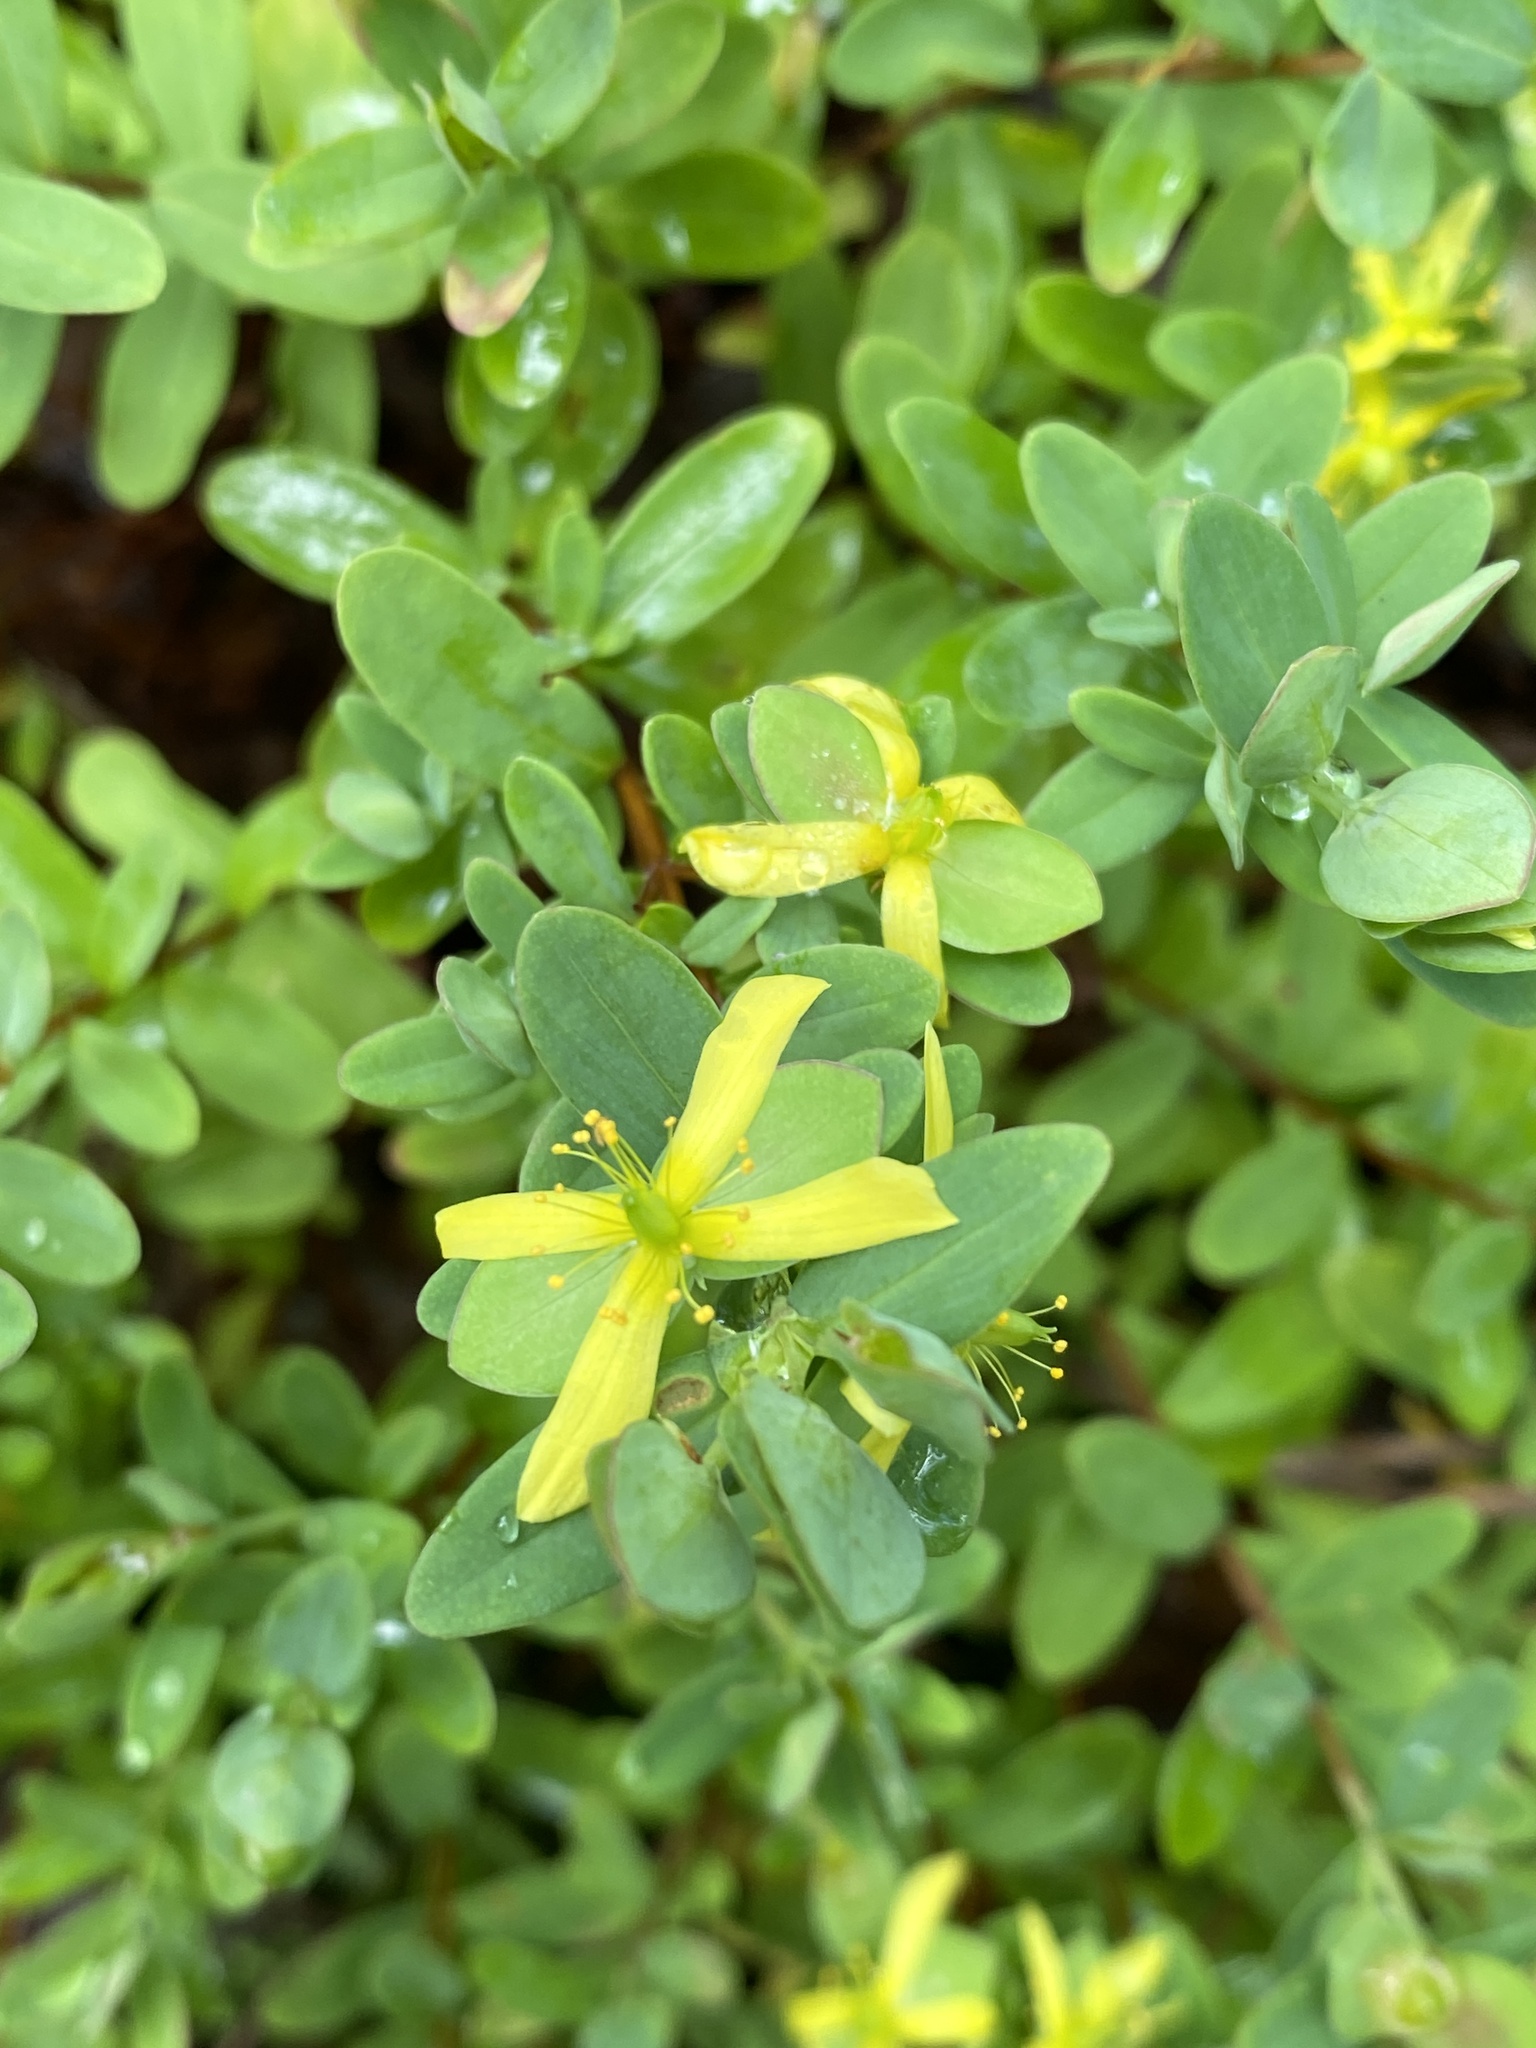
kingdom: Plantae
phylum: Tracheophyta
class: Magnoliopsida
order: Malpighiales
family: Hypericaceae
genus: Hypericum
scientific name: Hypericum hypericoides
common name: St. andrew's cross
